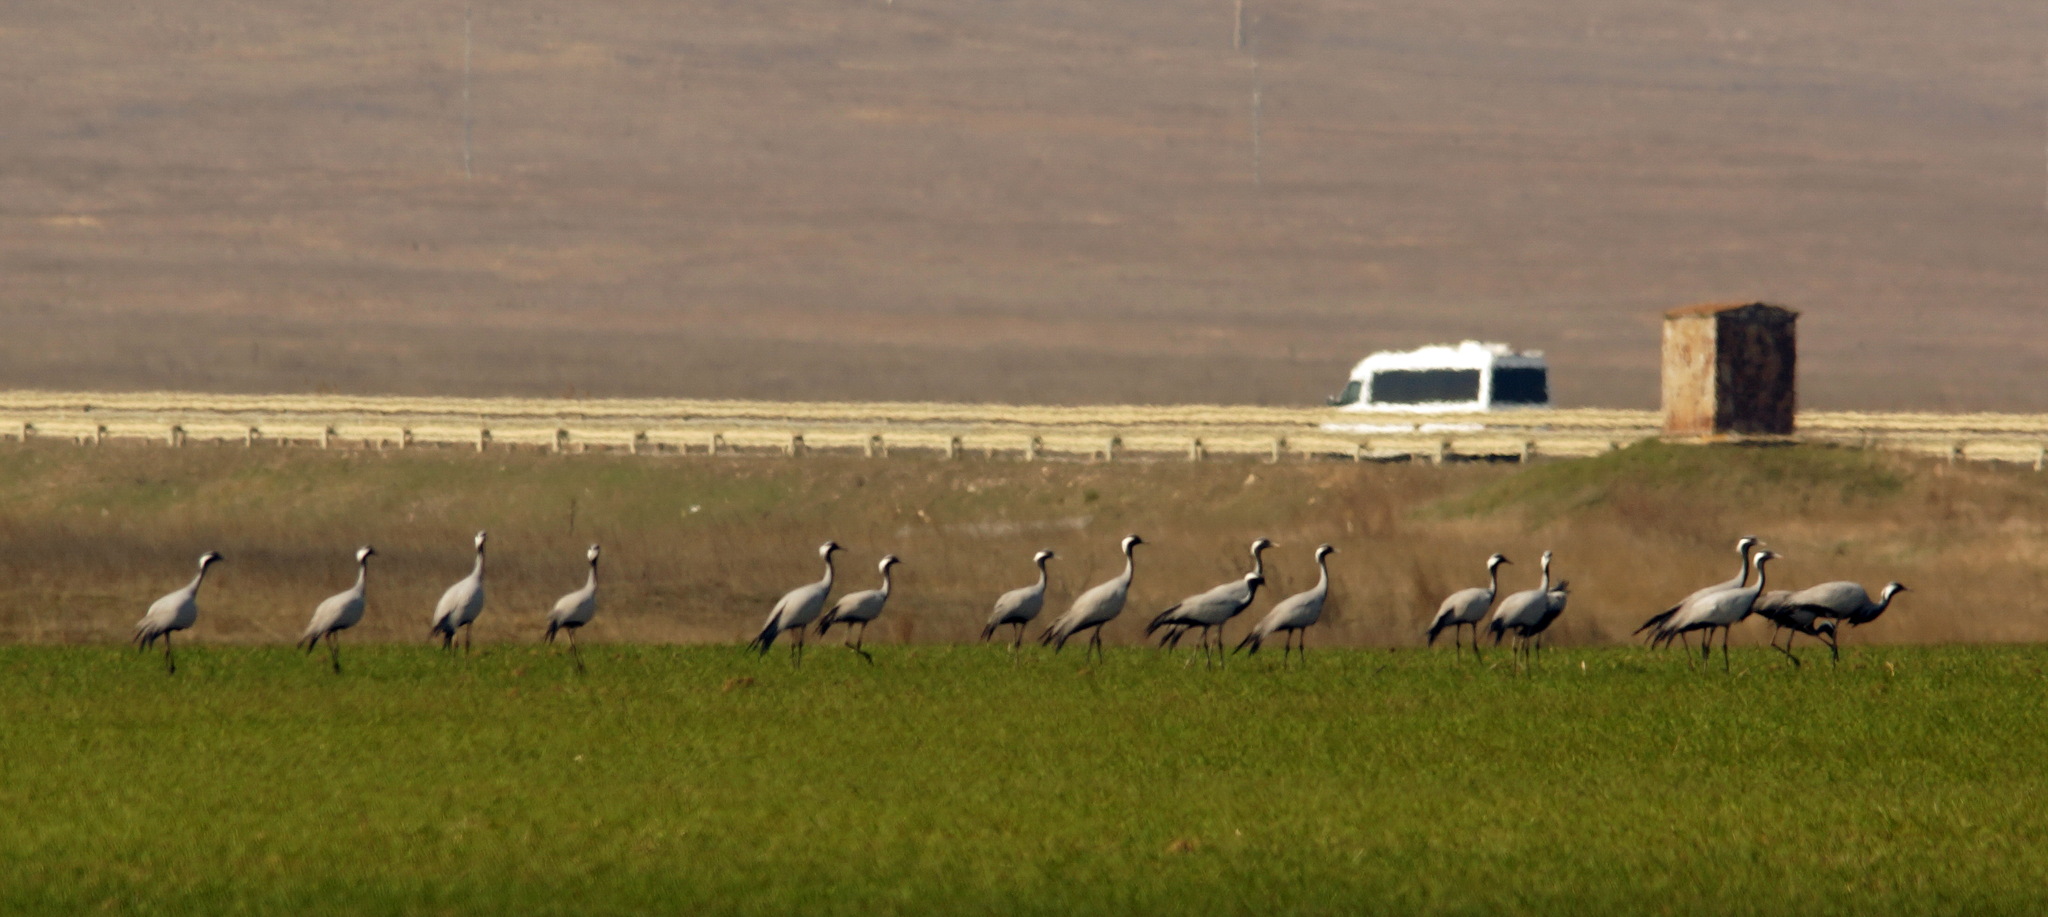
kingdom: Animalia
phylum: Chordata
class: Aves
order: Gruiformes
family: Gruidae
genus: Anthropoides
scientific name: Anthropoides virgo
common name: Demoiselle crane
